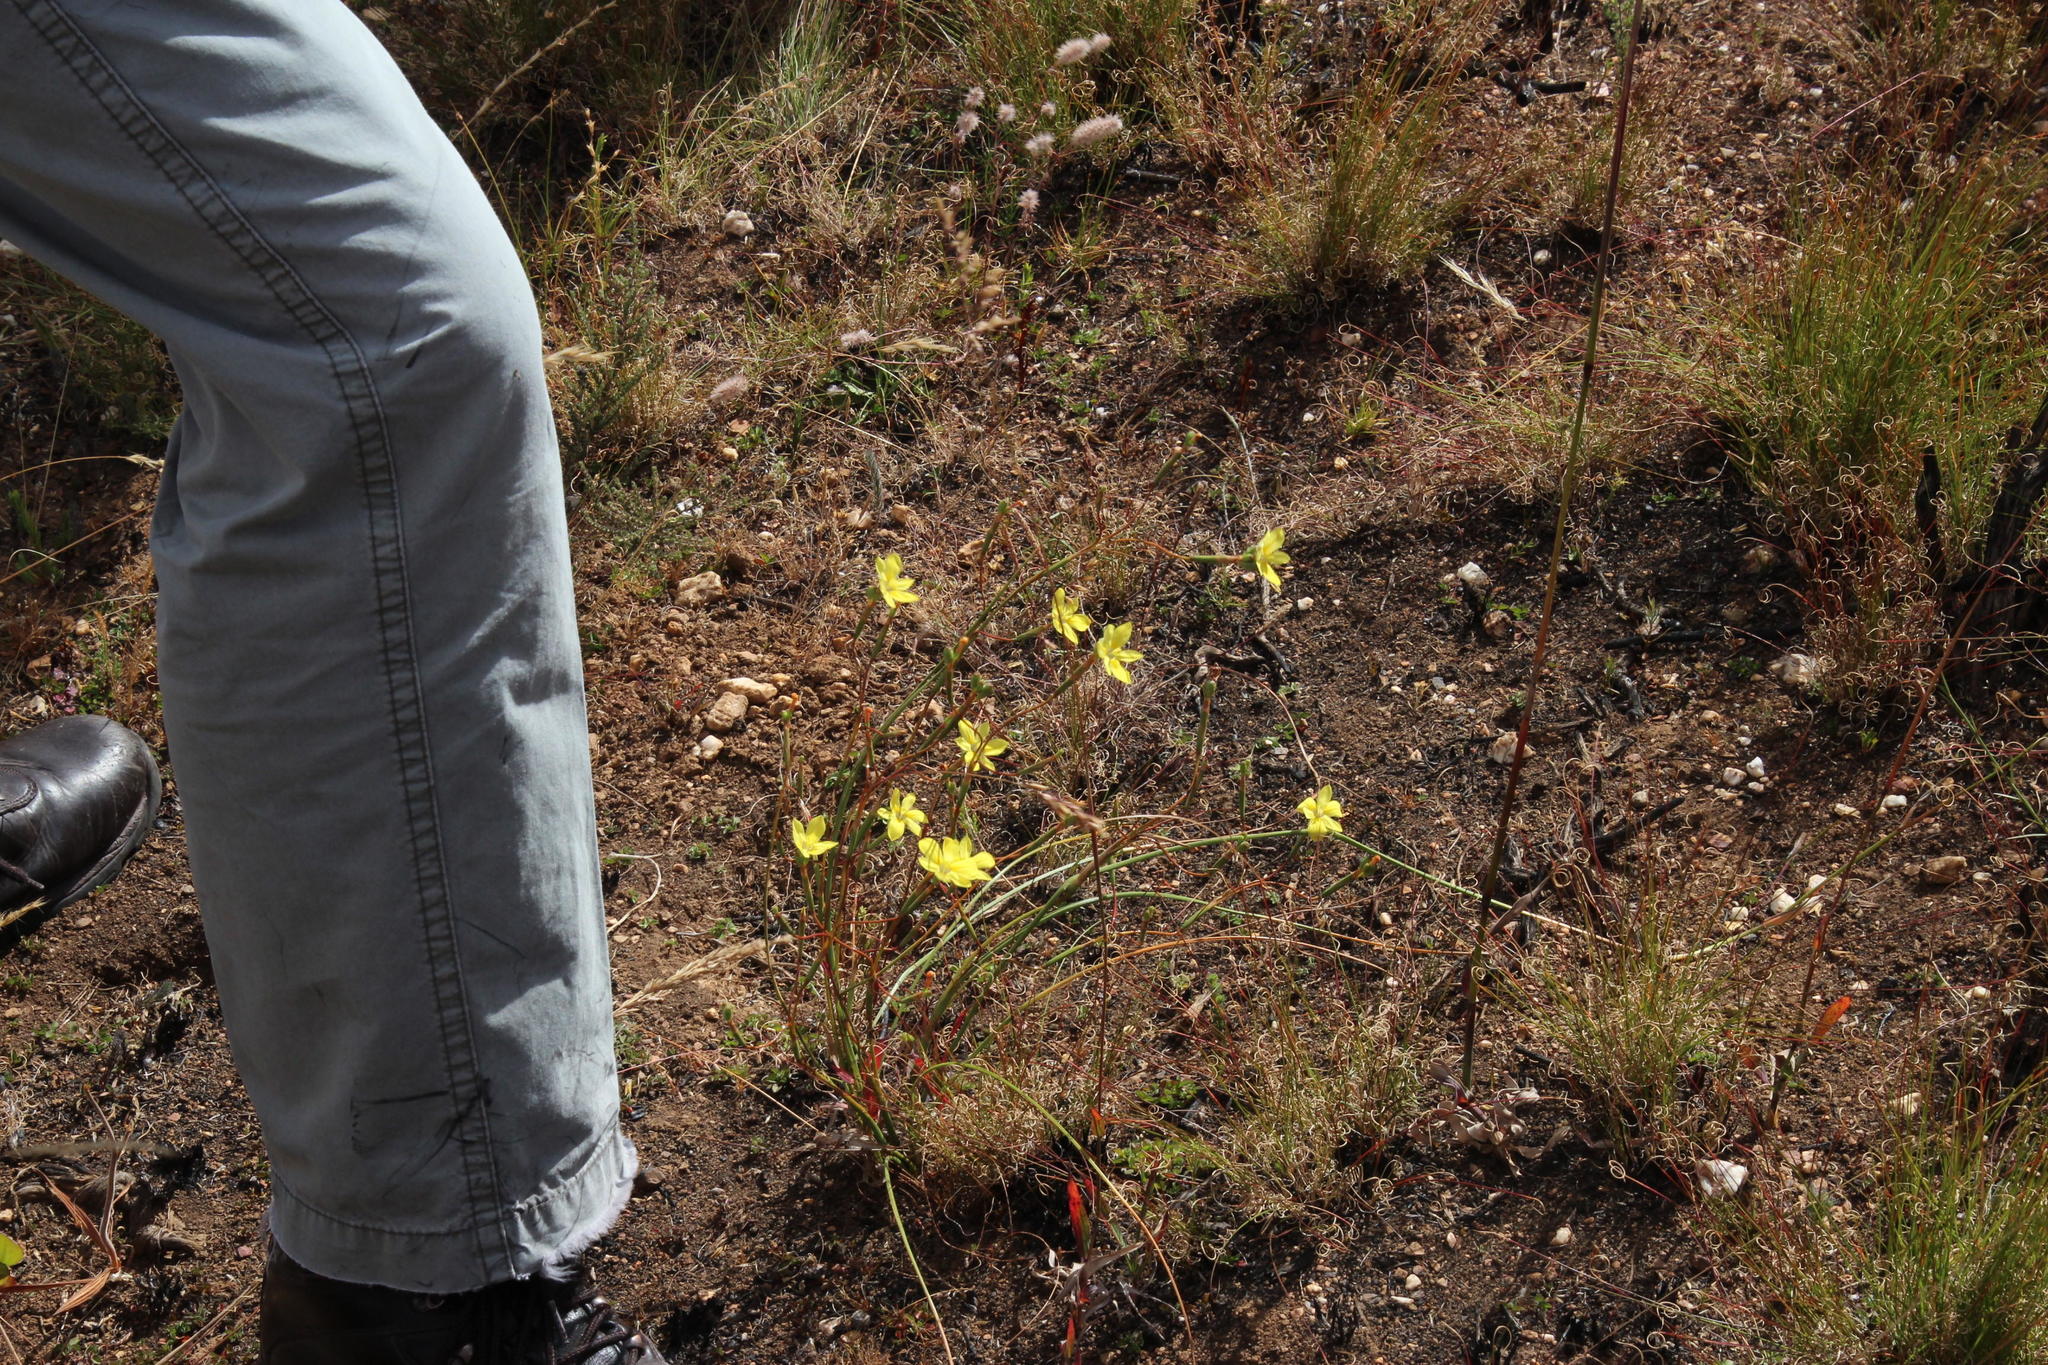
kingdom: Plantae
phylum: Tracheophyta
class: Liliopsida
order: Asparagales
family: Iridaceae
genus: Moraea
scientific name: Moraea elsiae
